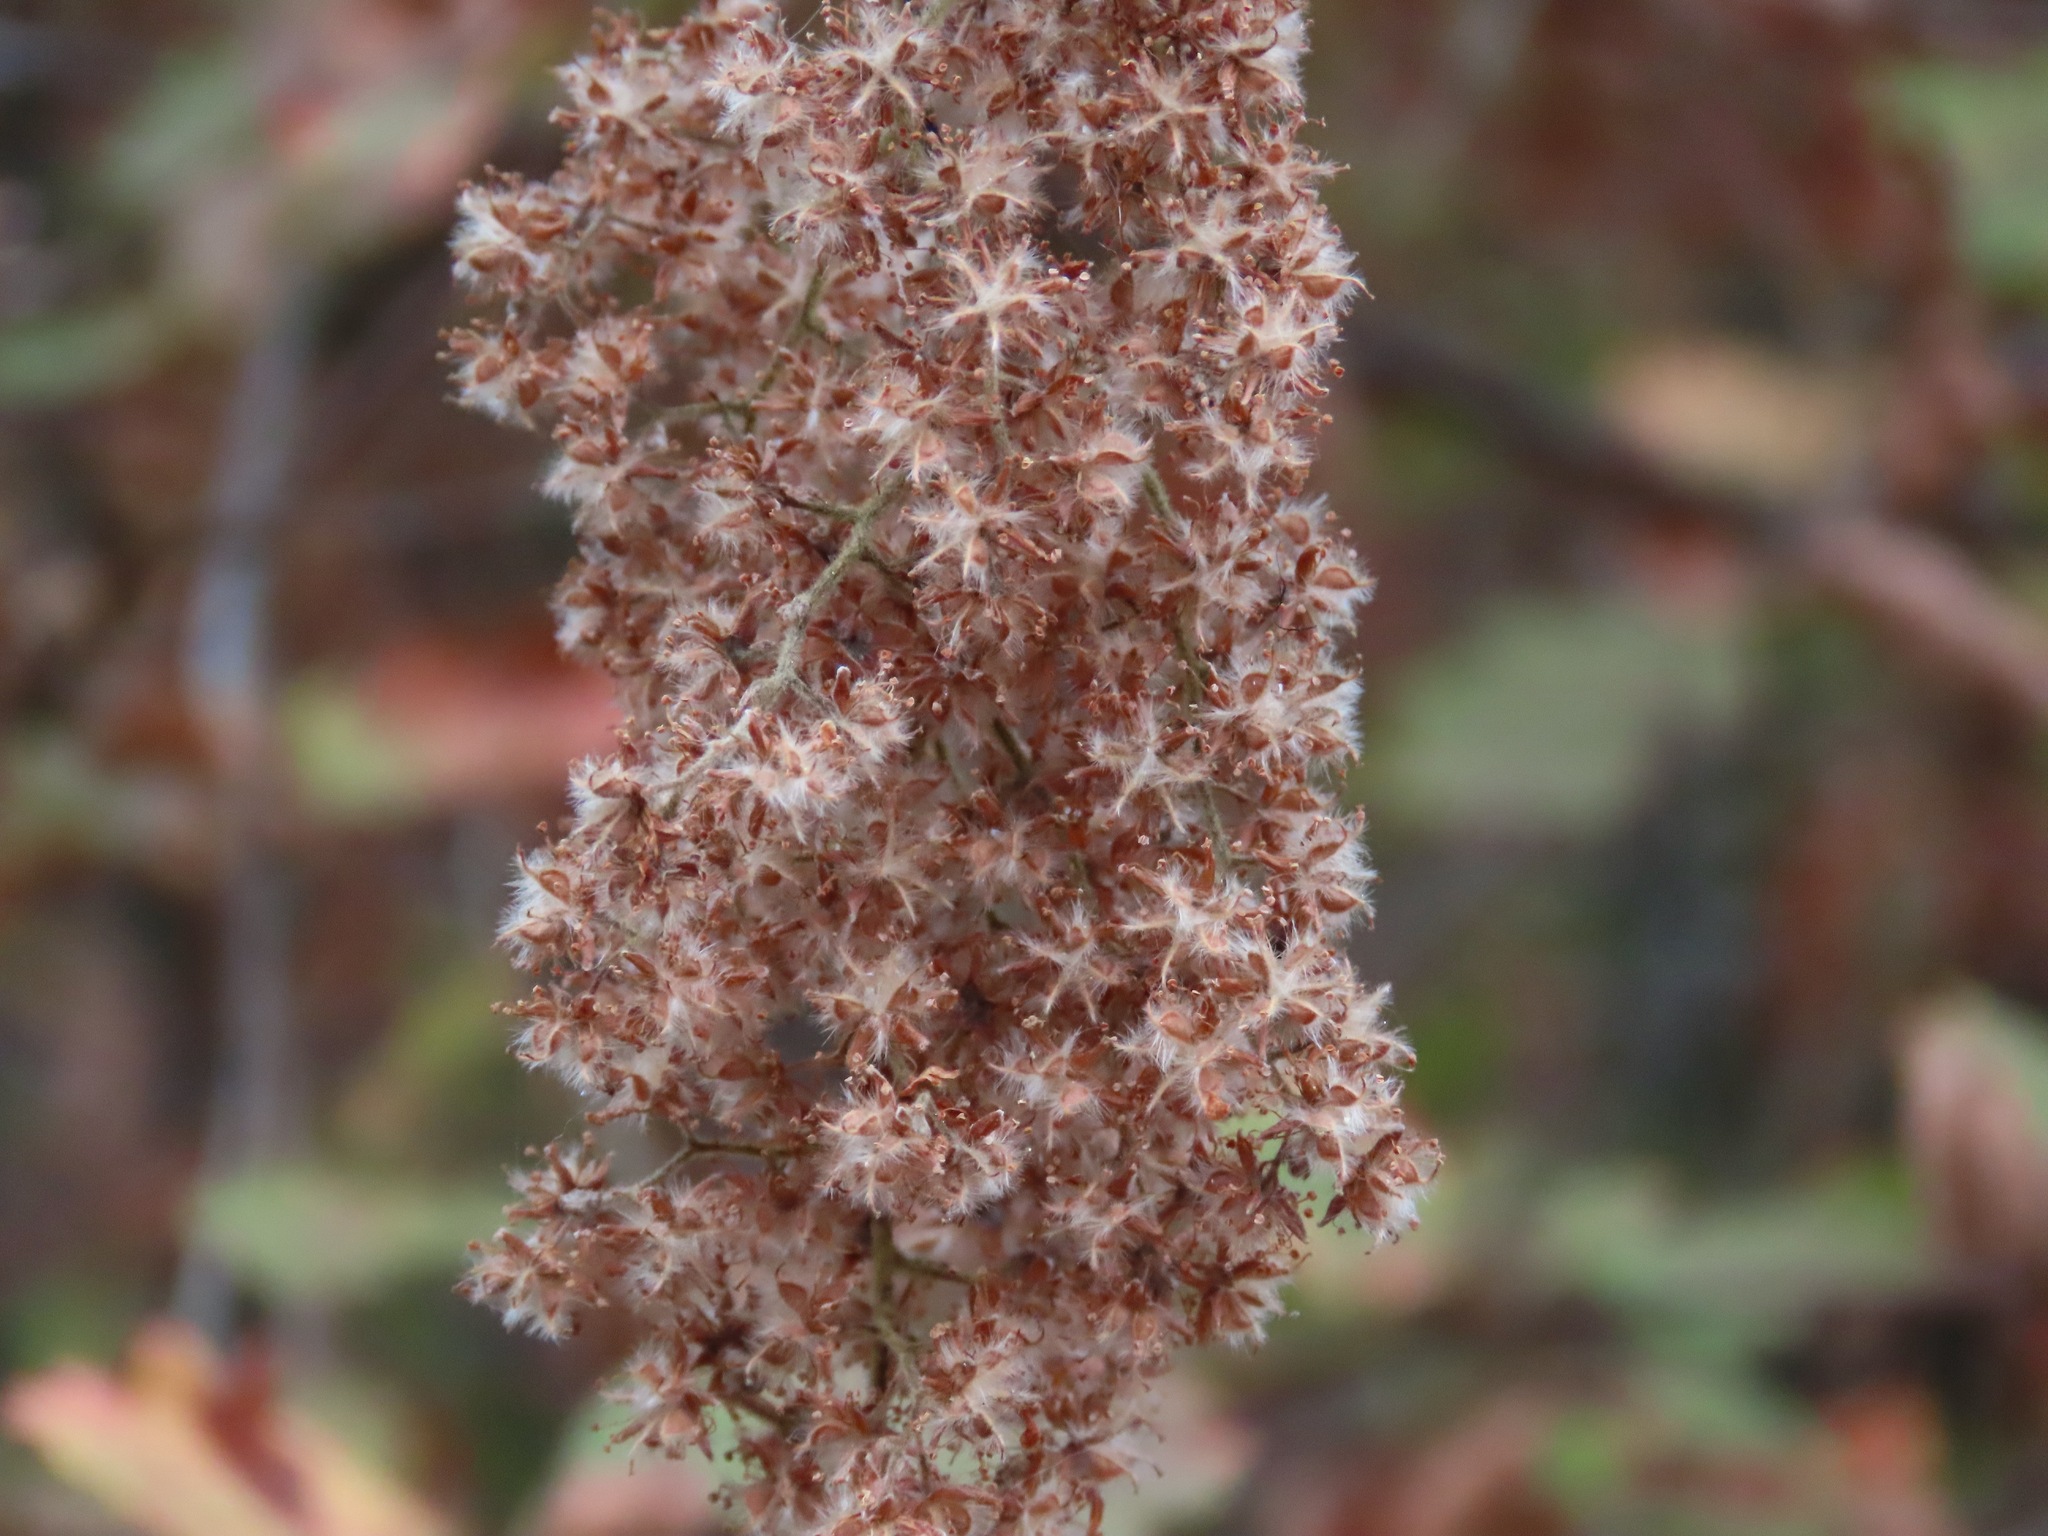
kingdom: Plantae
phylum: Tracheophyta
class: Magnoliopsida
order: Rosales
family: Rosaceae
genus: Holodiscus
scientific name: Holodiscus discolor
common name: Oceanspray
